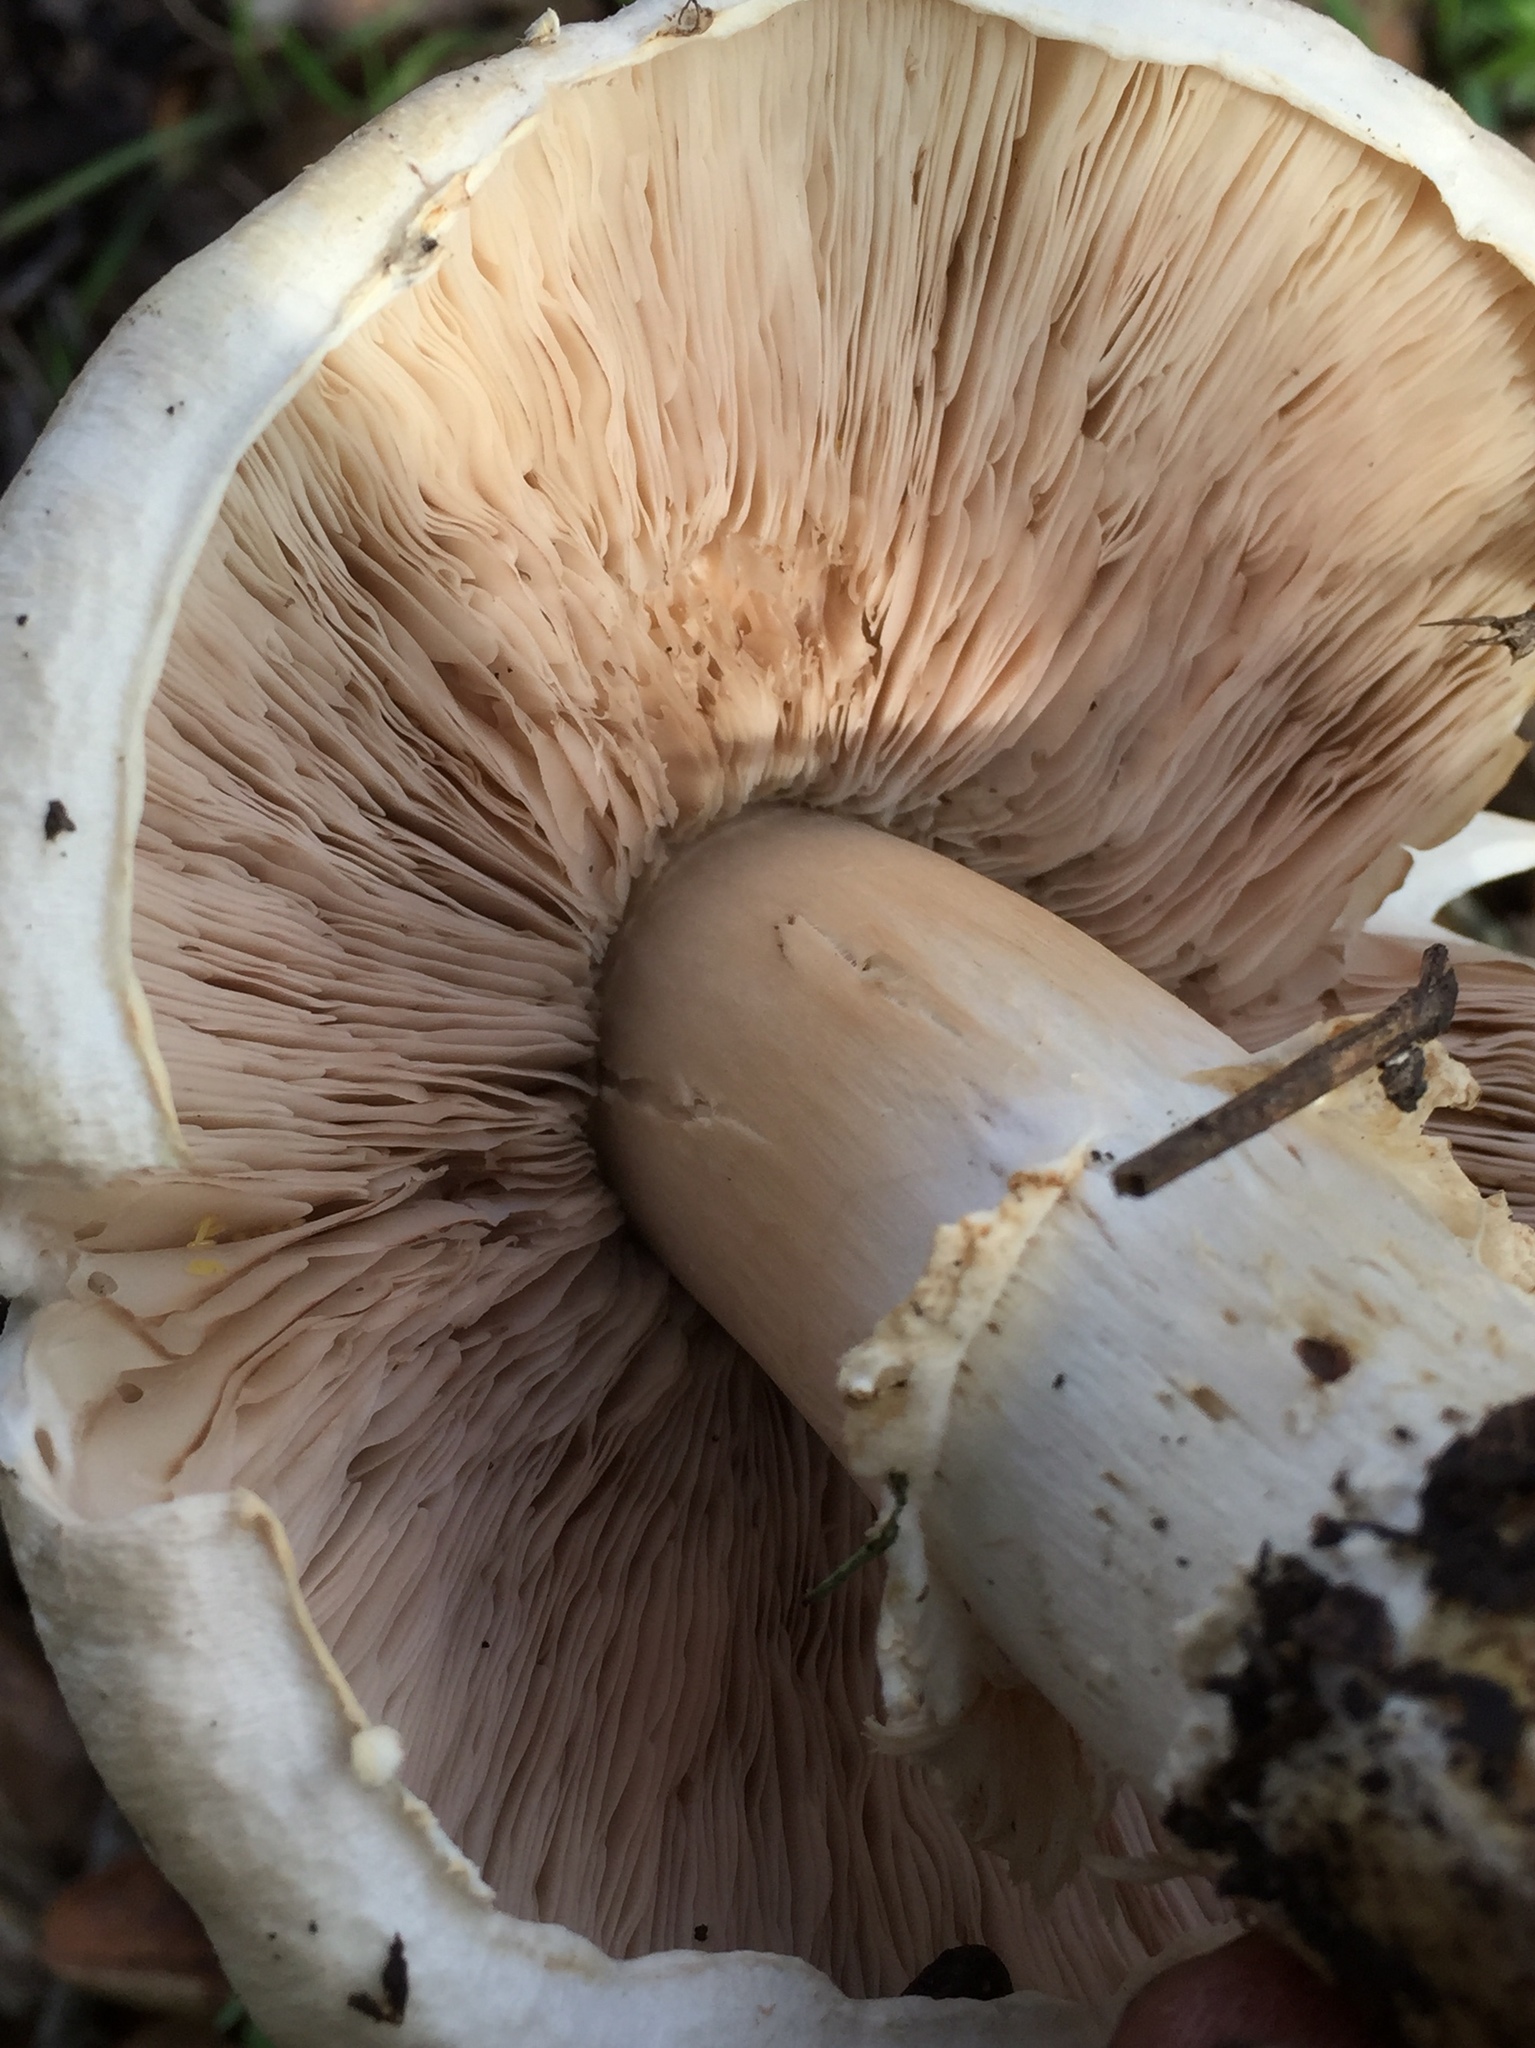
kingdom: Fungi
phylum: Basidiomycota
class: Agaricomycetes
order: Agaricales
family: Agaricaceae
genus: Agaricus
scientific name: Agaricus arvensis
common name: Horse mushroom
